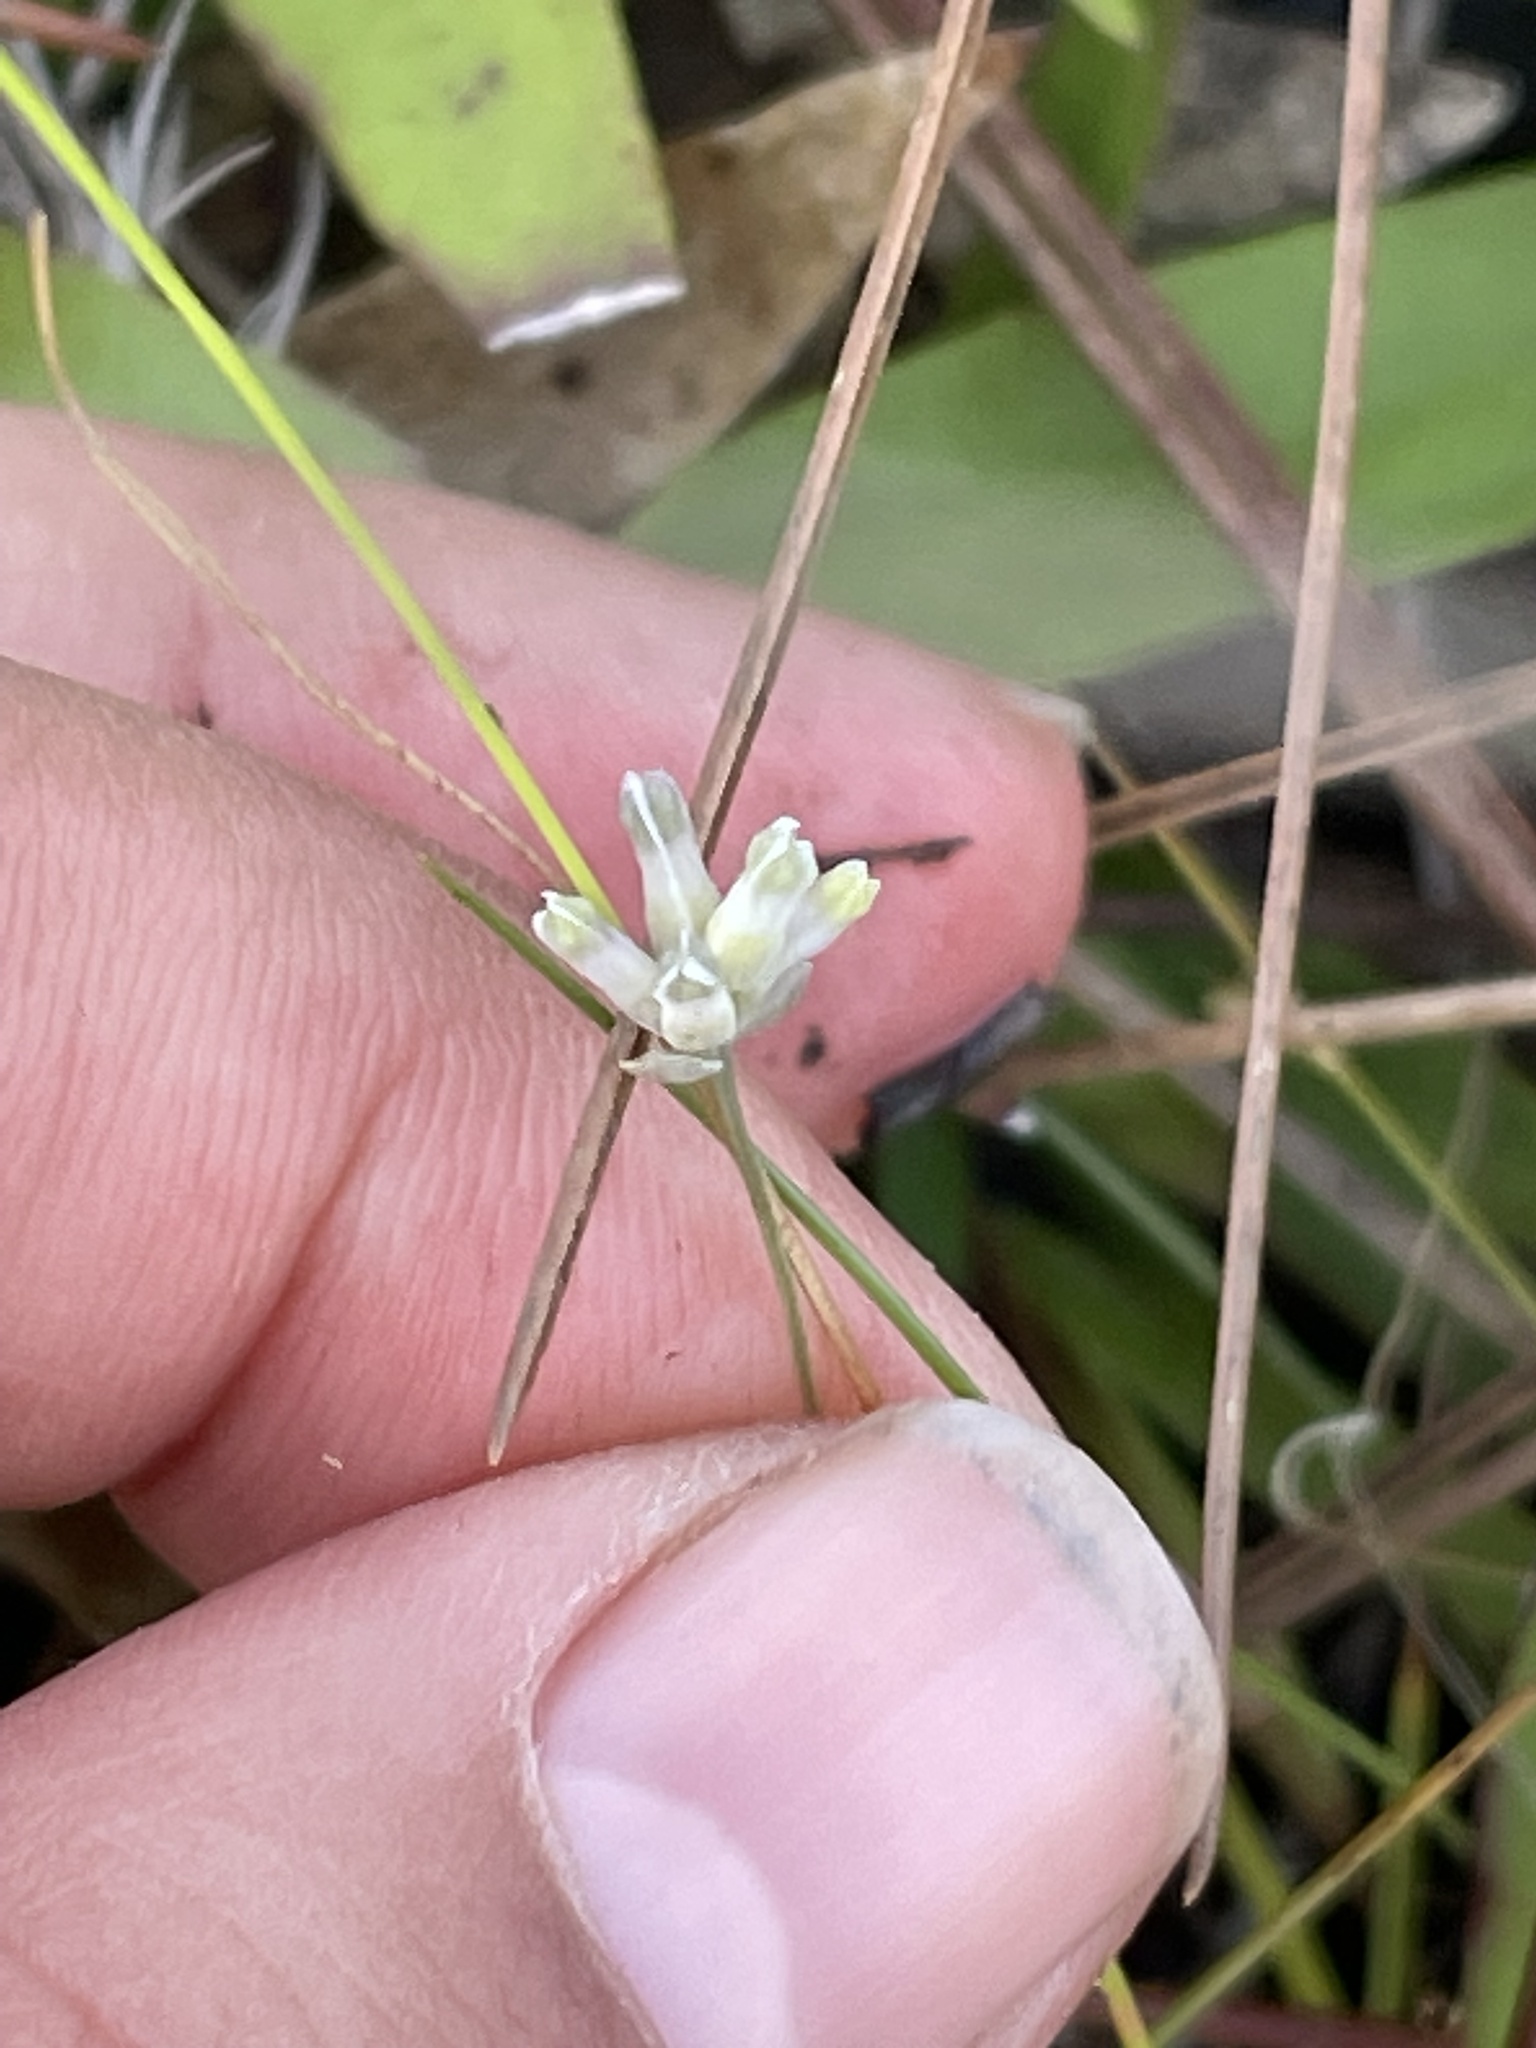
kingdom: Plantae
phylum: Tracheophyta
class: Liliopsida
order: Dioscoreales
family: Burmanniaceae
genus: Burmannia
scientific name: Burmannia capitata
